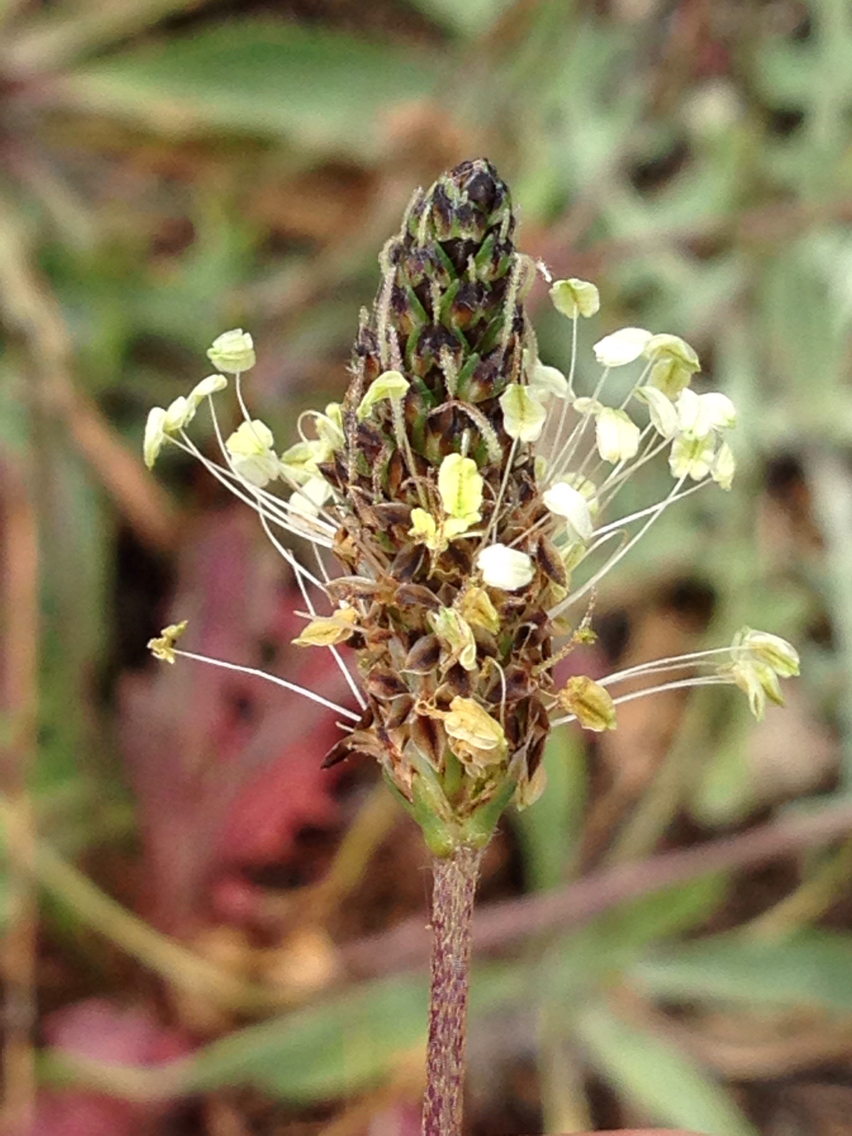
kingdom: Plantae
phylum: Tracheophyta
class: Magnoliopsida
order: Lamiales
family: Plantaginaceae
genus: Plantago
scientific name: Plantago lanceolata
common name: Ribwort plantain
